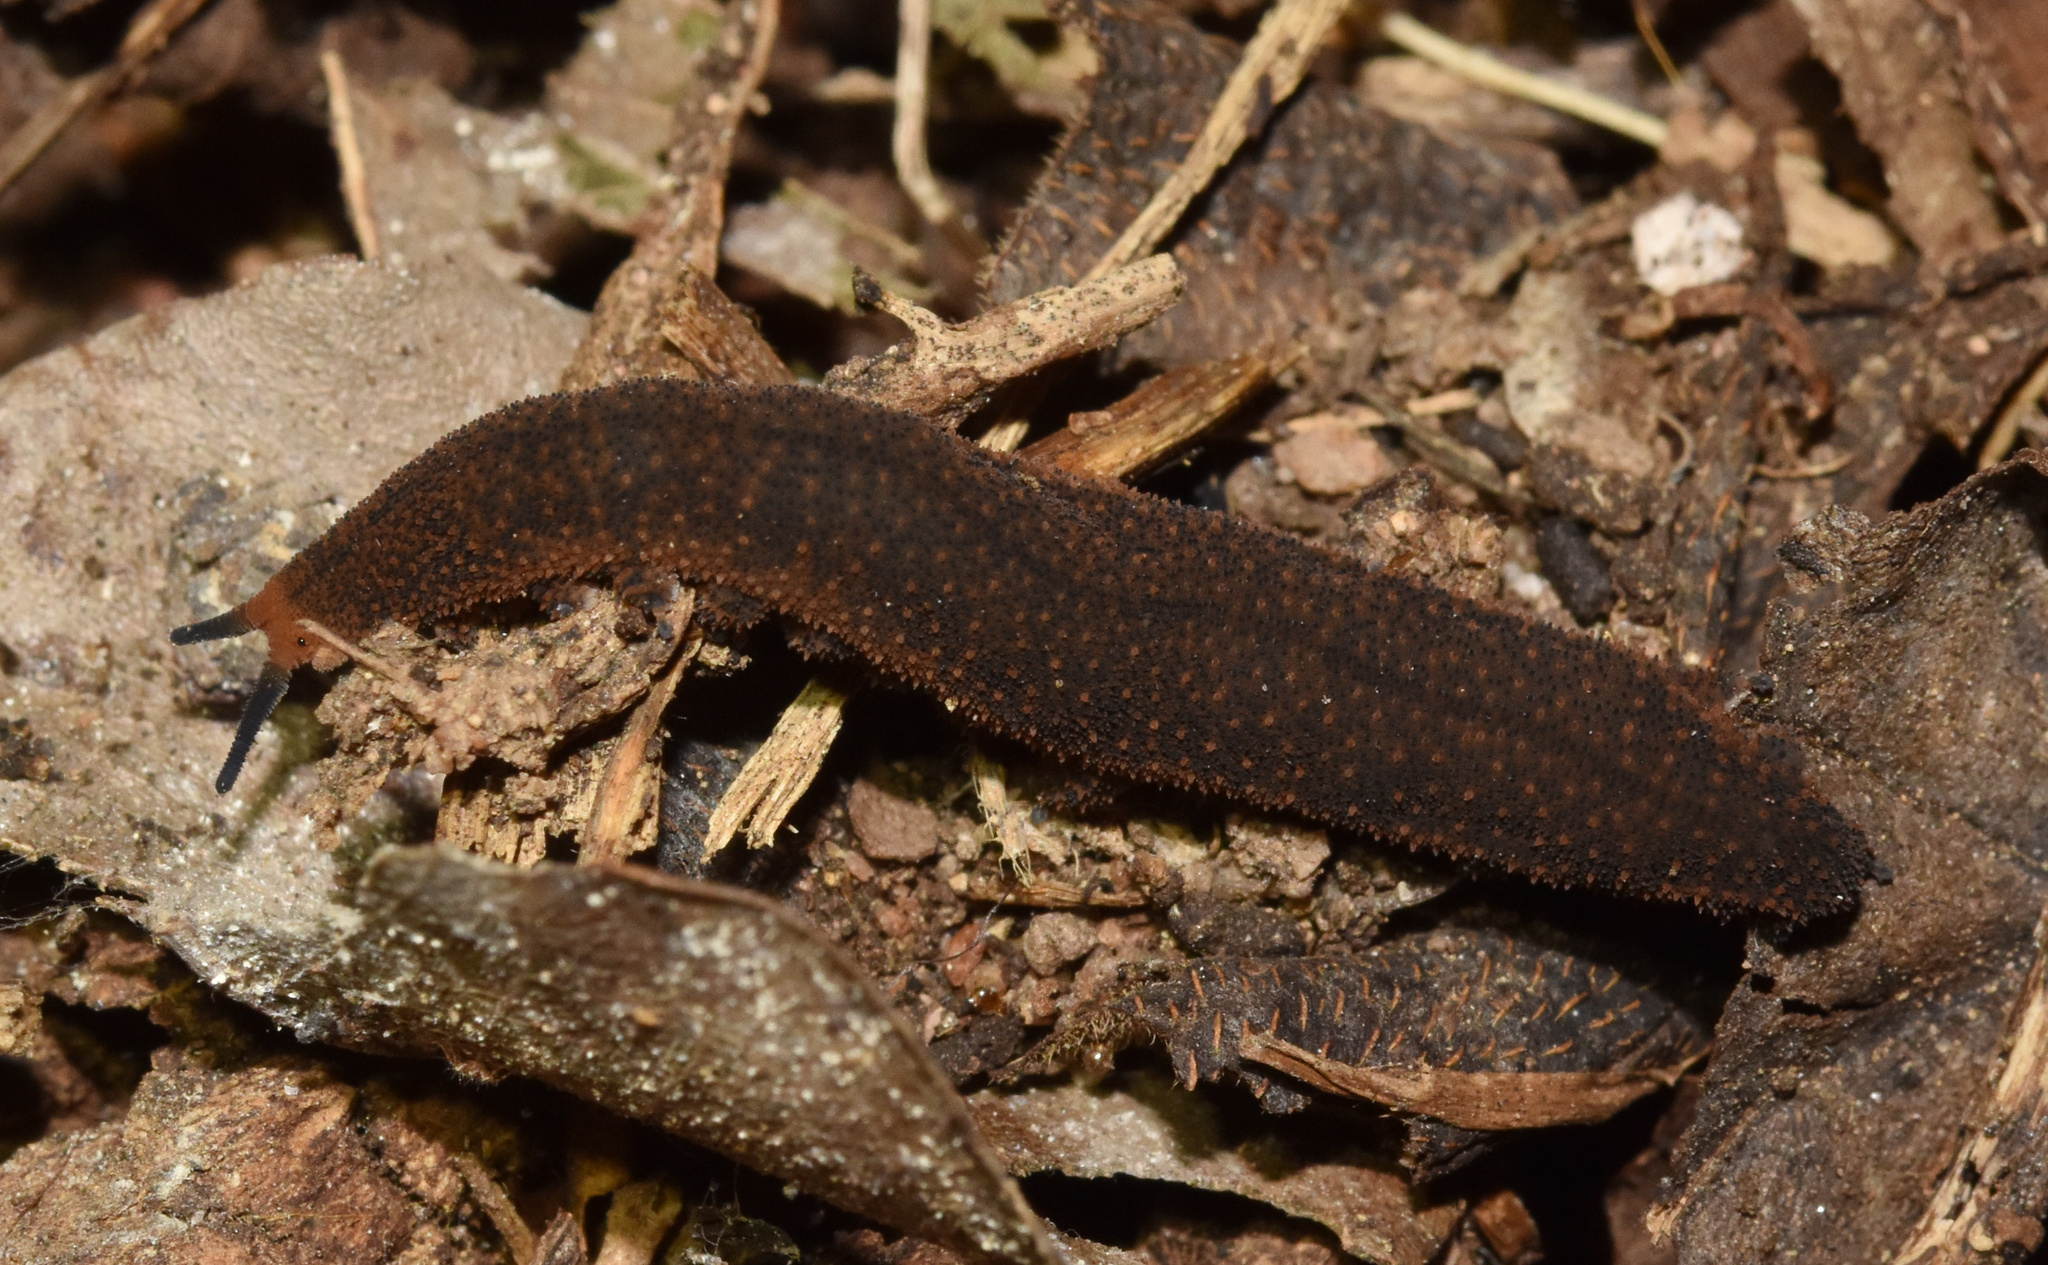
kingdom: Animalia
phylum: Onychophora
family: Peripatopsidae
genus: Opisthopatus
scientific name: Opisthopatus kwazululandi
